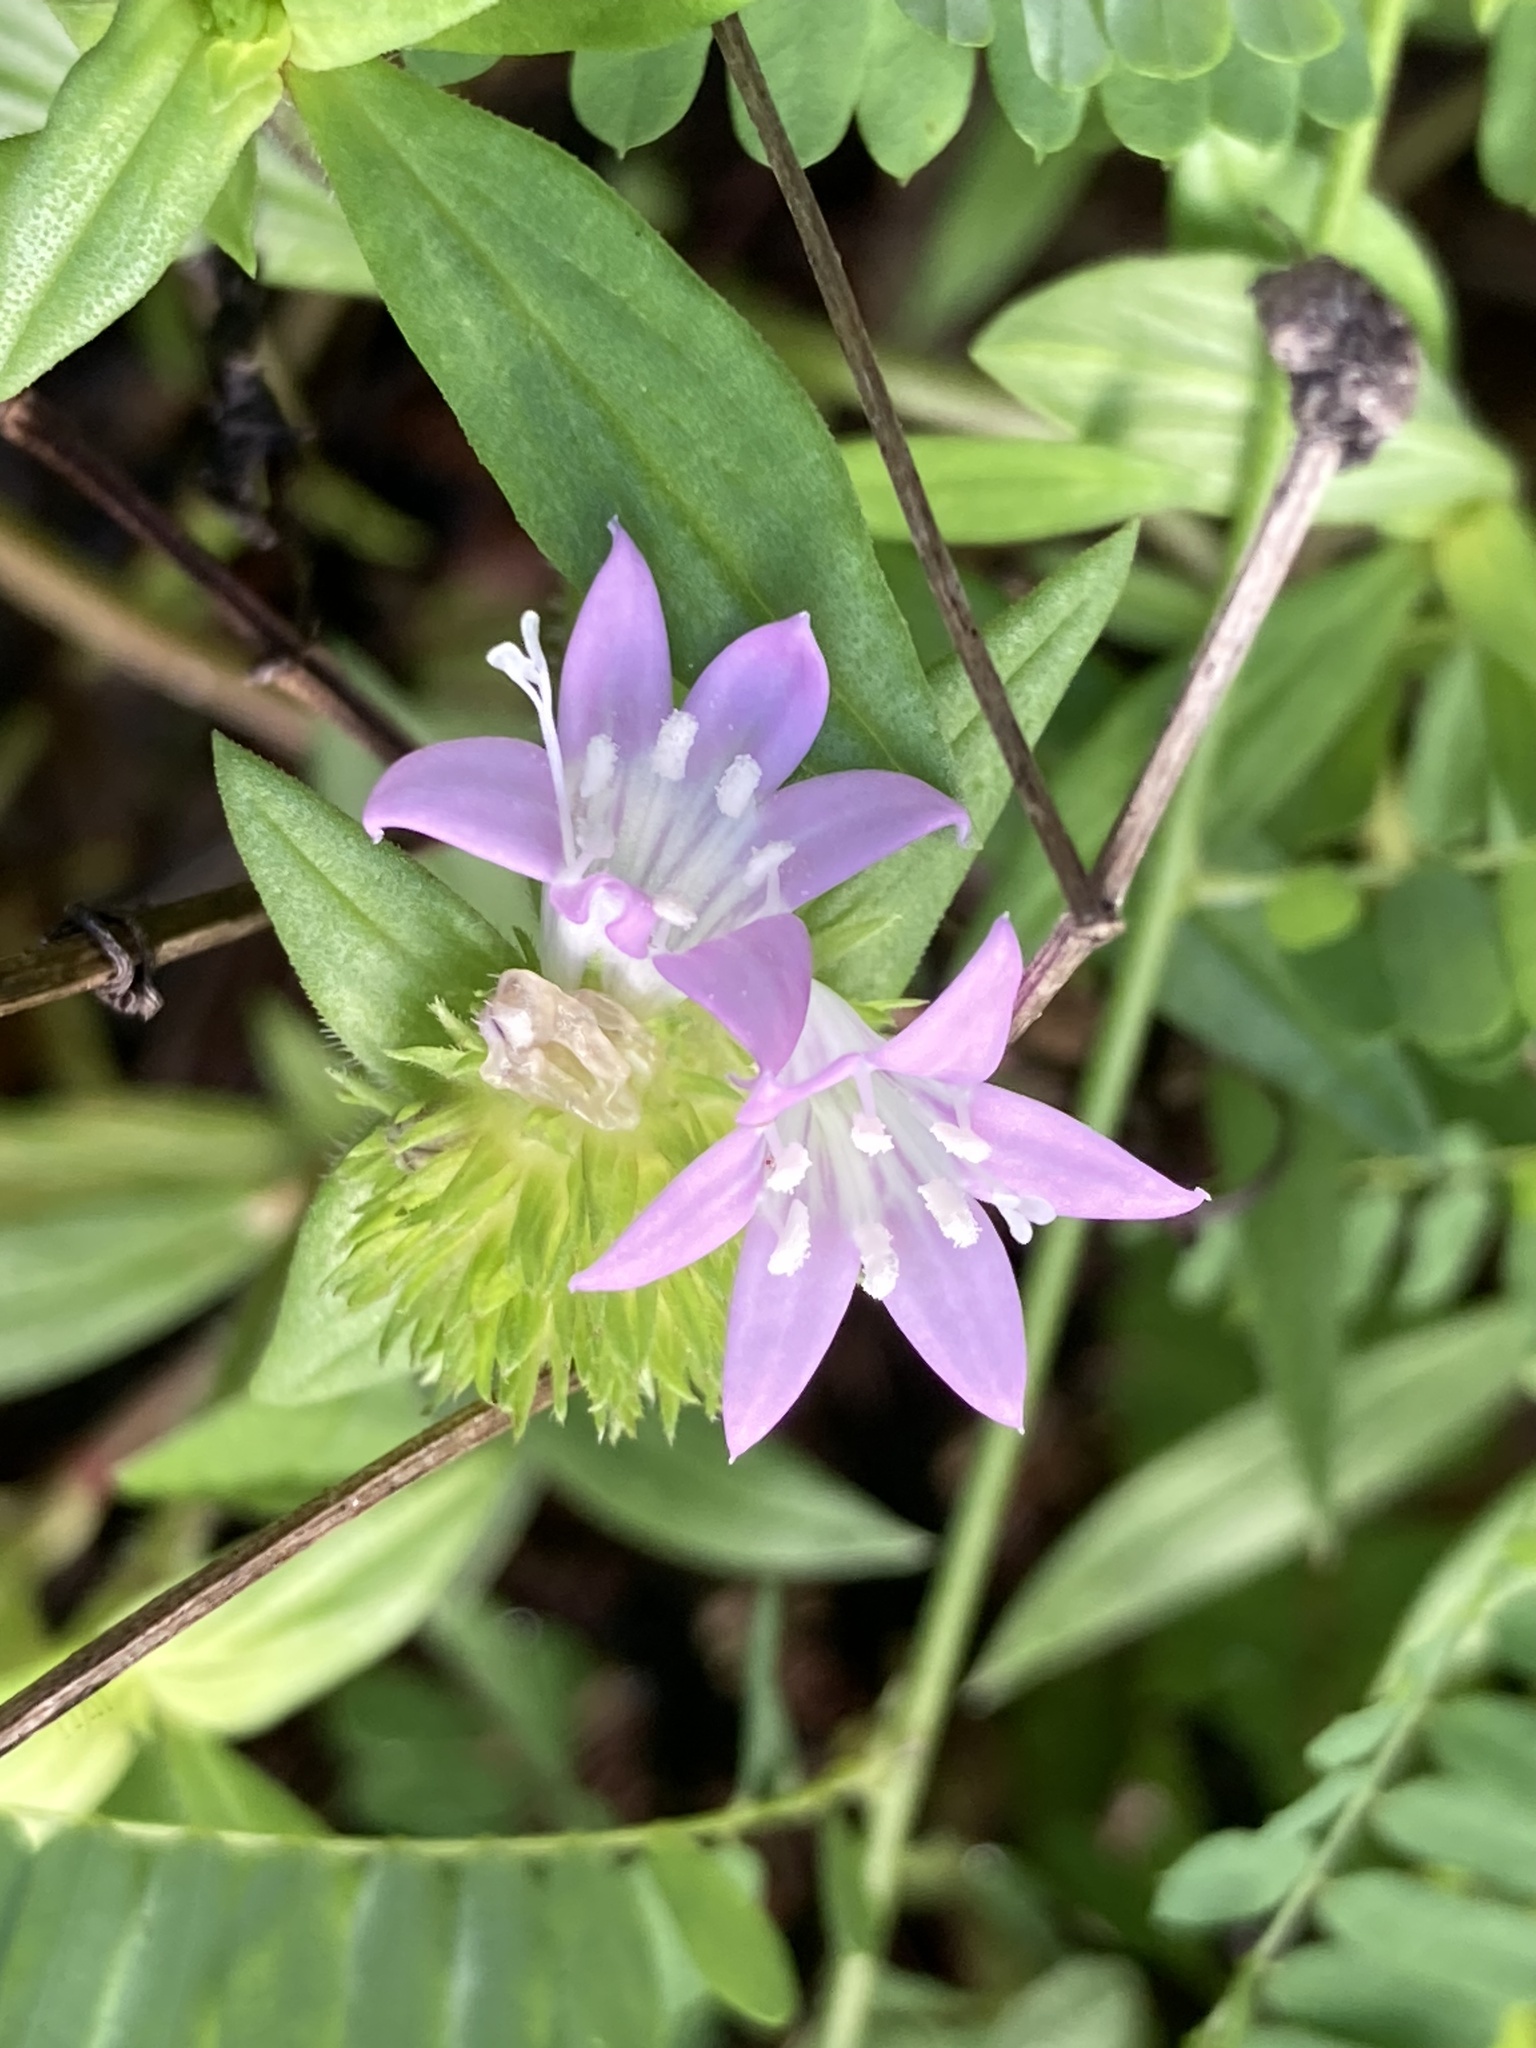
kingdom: Plantae
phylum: Tracheophyta
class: Magnoliopsida
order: Gentianales
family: Rubiaceae
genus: Richardia
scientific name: Richardia grandiflora
